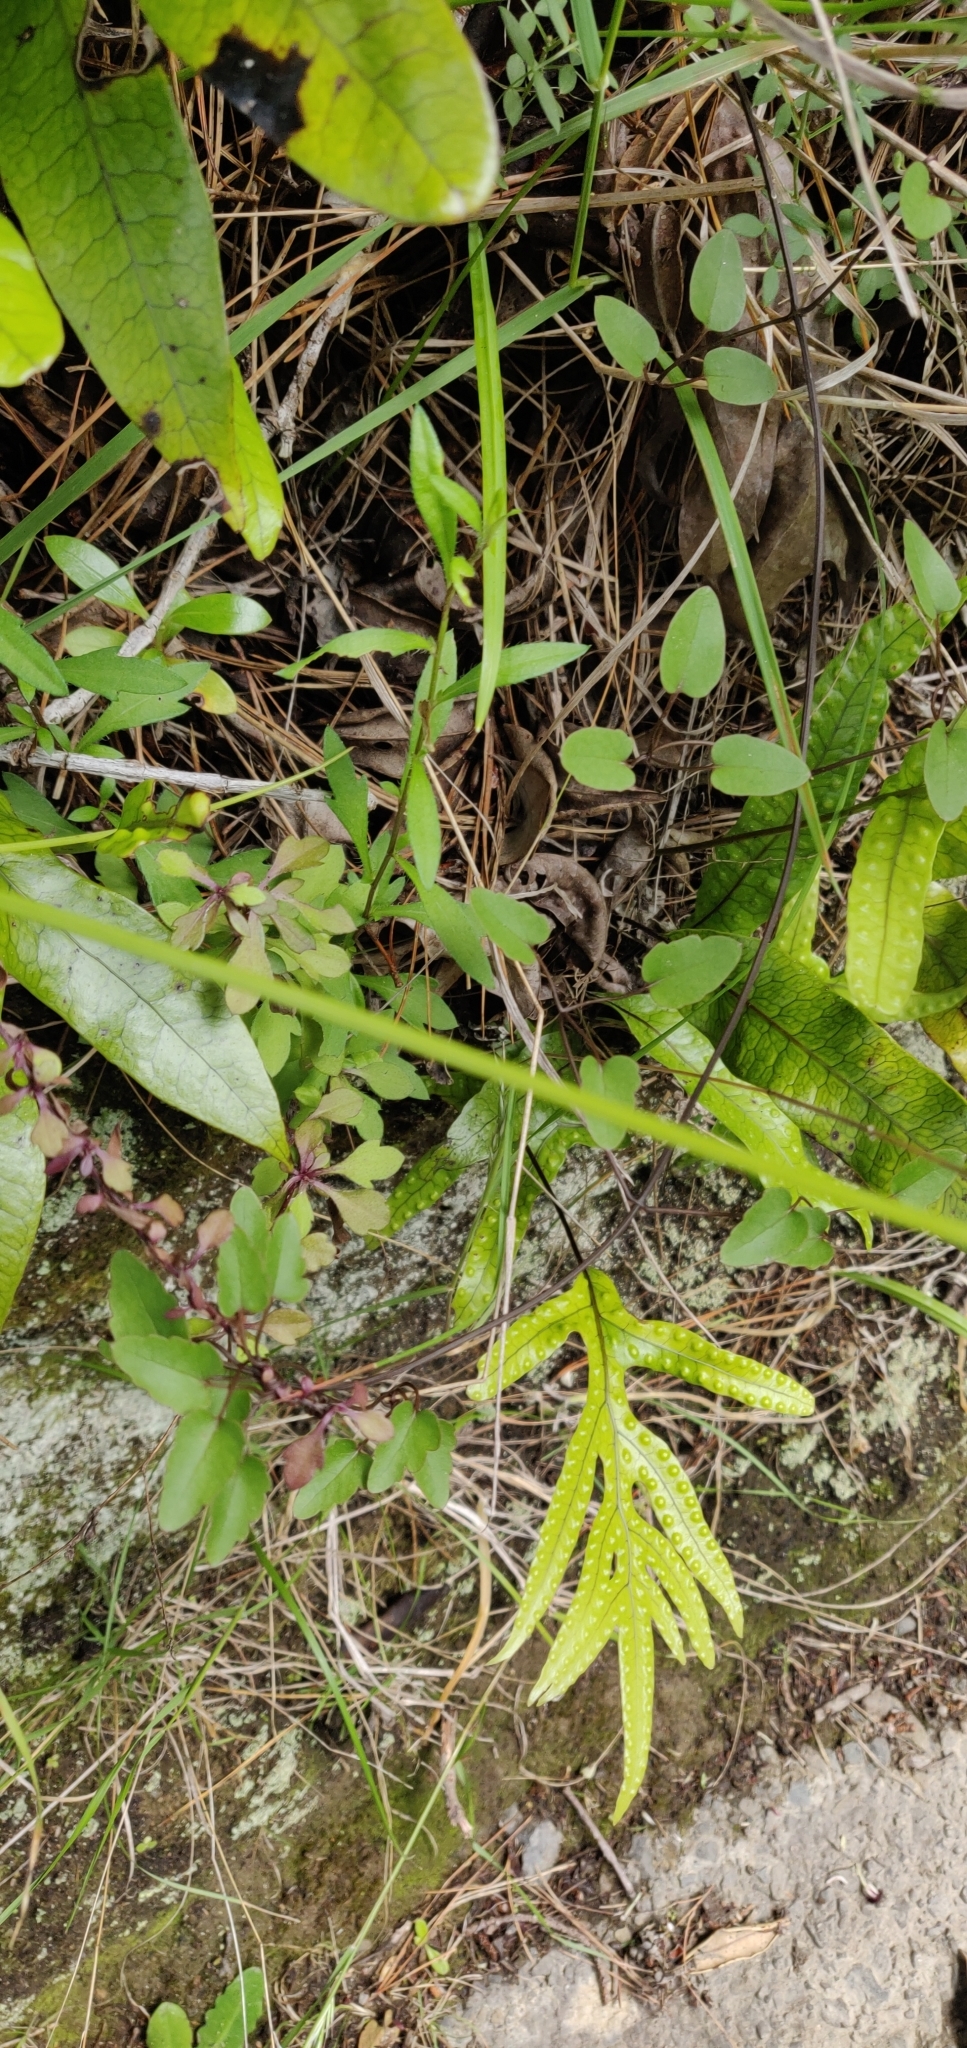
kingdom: Plantae
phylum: Tracheophyta
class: Magnoliopsida
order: Ranunculales
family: Ranunculaceae
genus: Clematis
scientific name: Clematis forsteri
